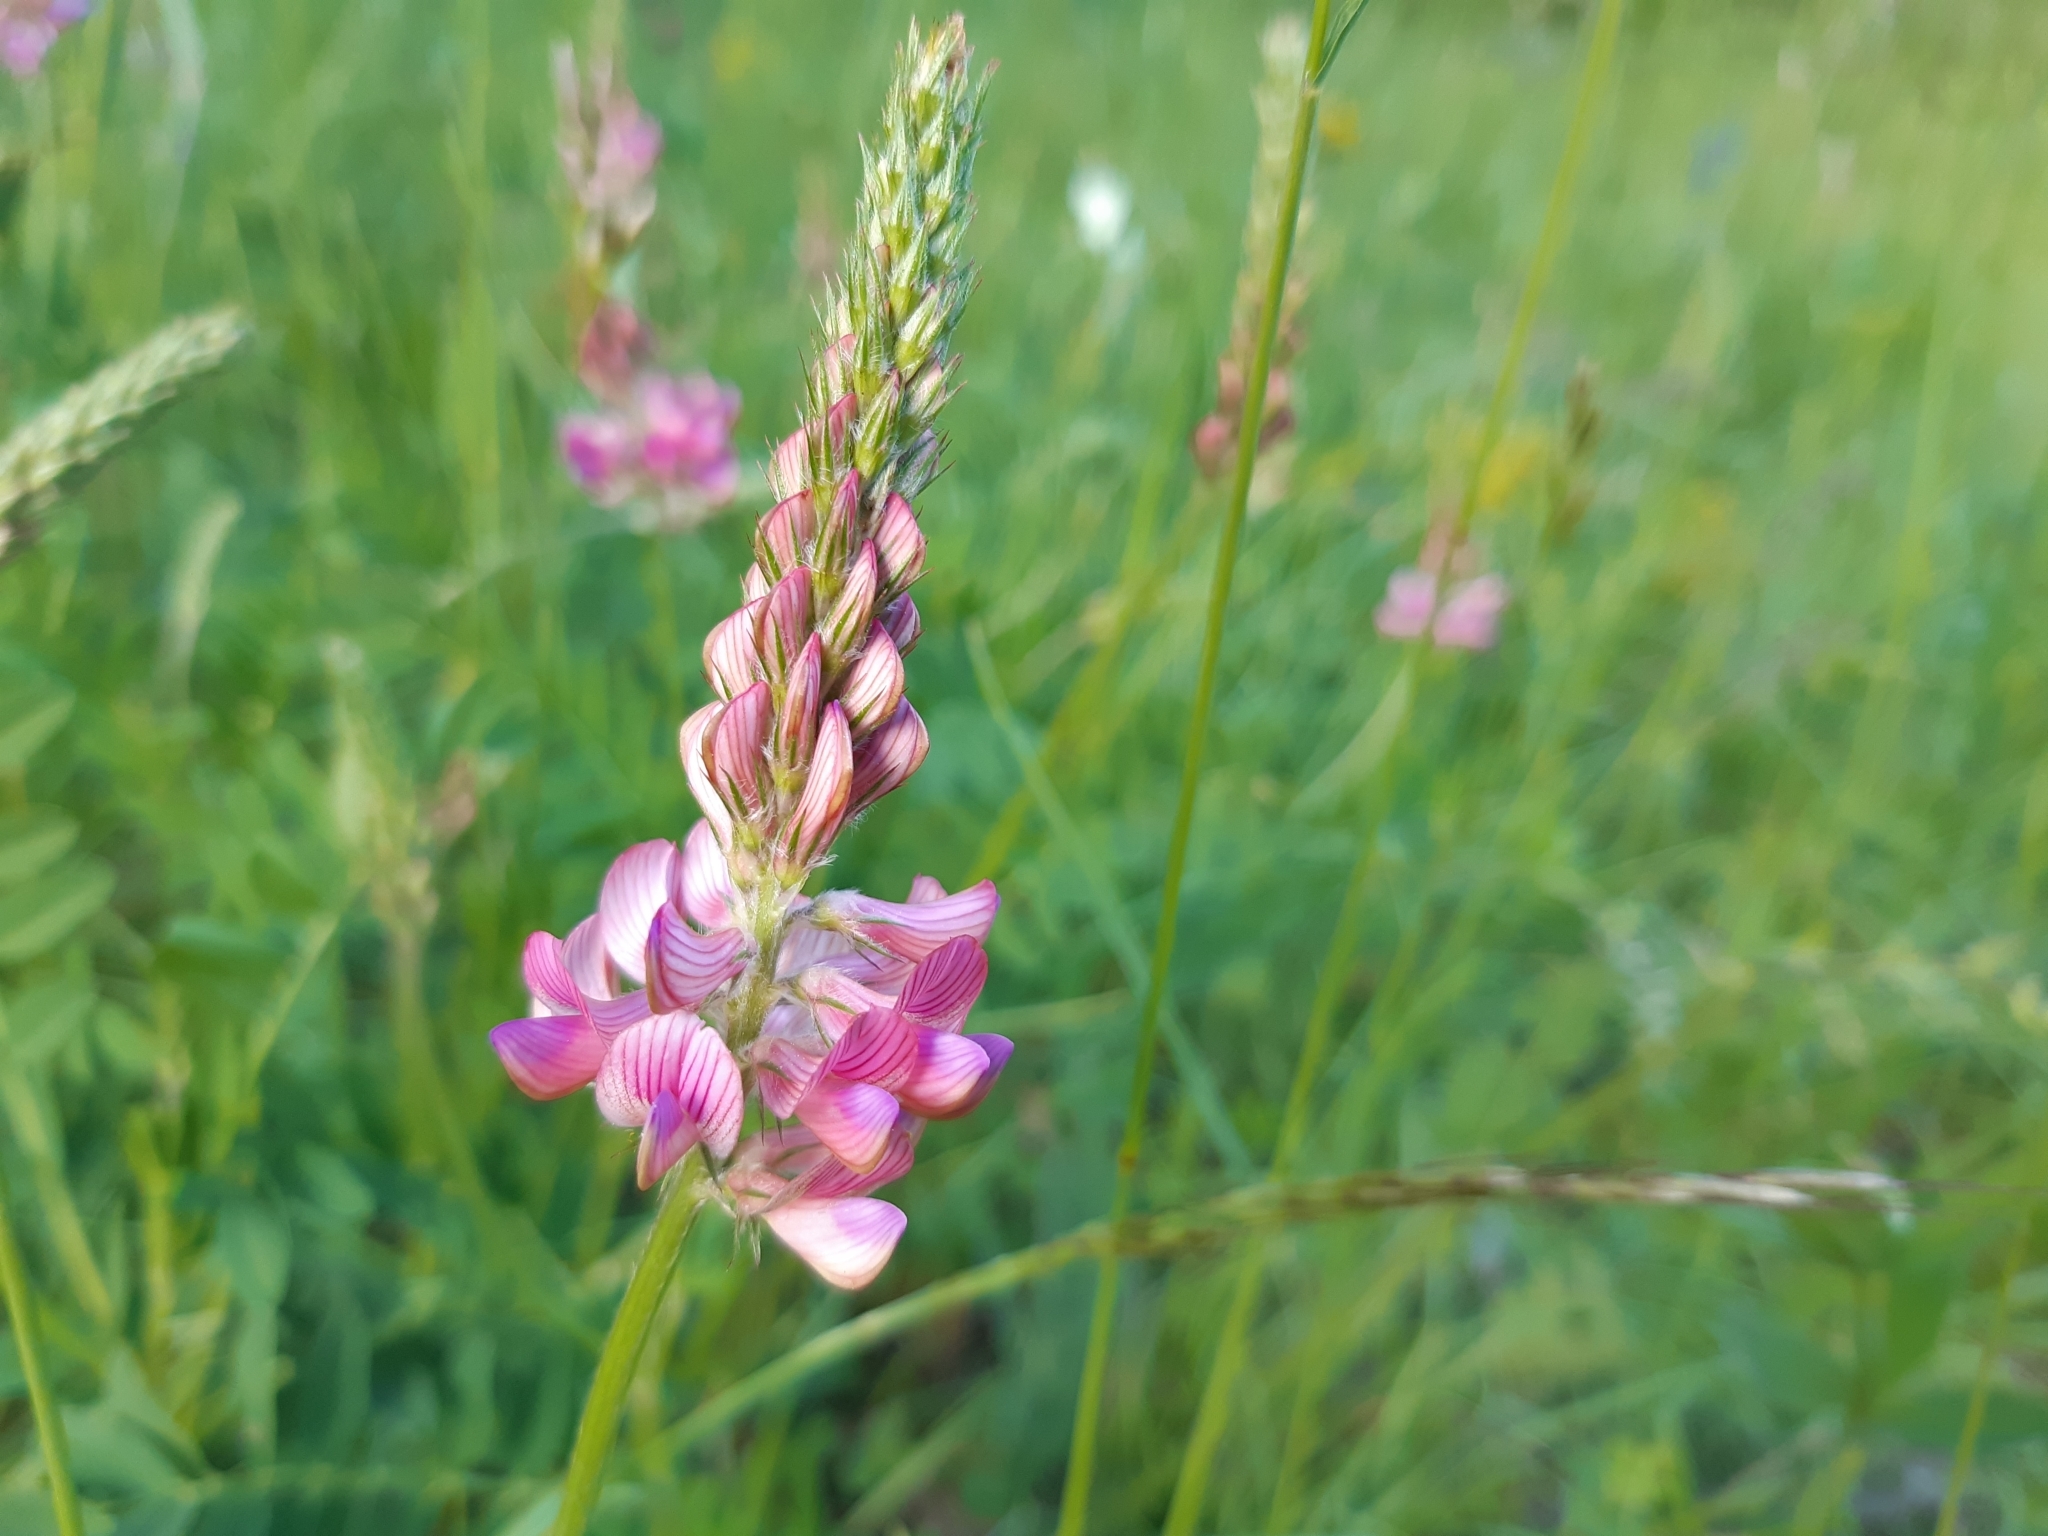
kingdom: Plantae
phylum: Tracheophyta
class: Magnoliopsida
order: Fabales
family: Fabaceae
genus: Onobrychis
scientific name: Onobrychis viciifolia
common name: Sainfoin
